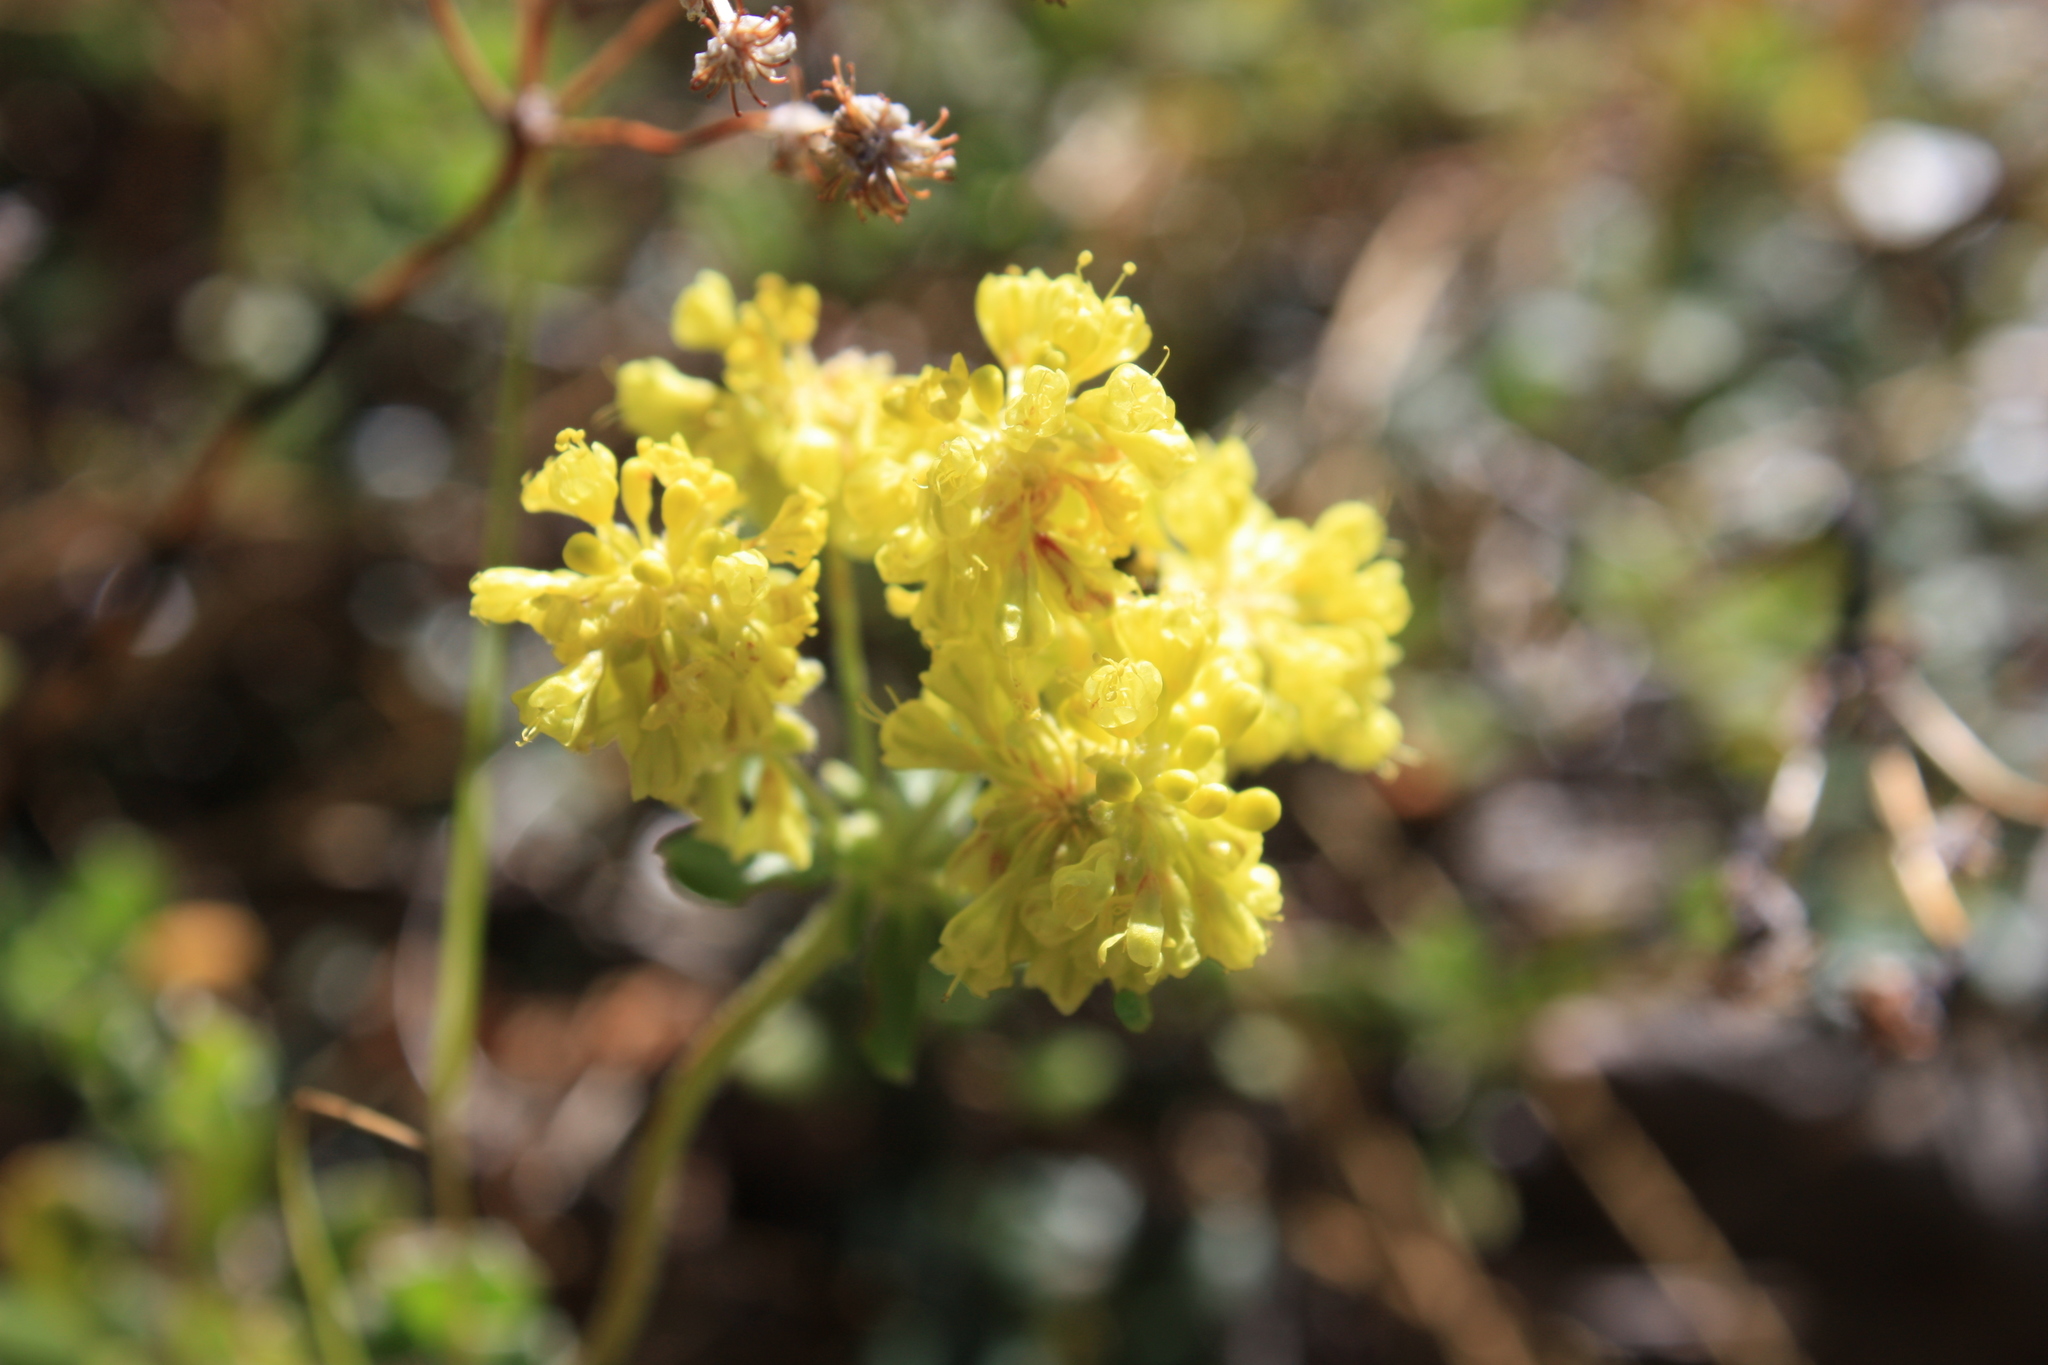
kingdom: Plantae
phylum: Tracheophyta
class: Magnoliopsida
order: Caryophyllales
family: Polygonaceae
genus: Eriogonum
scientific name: Eriogonum umbellatum
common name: Sulfur-buckwheat
